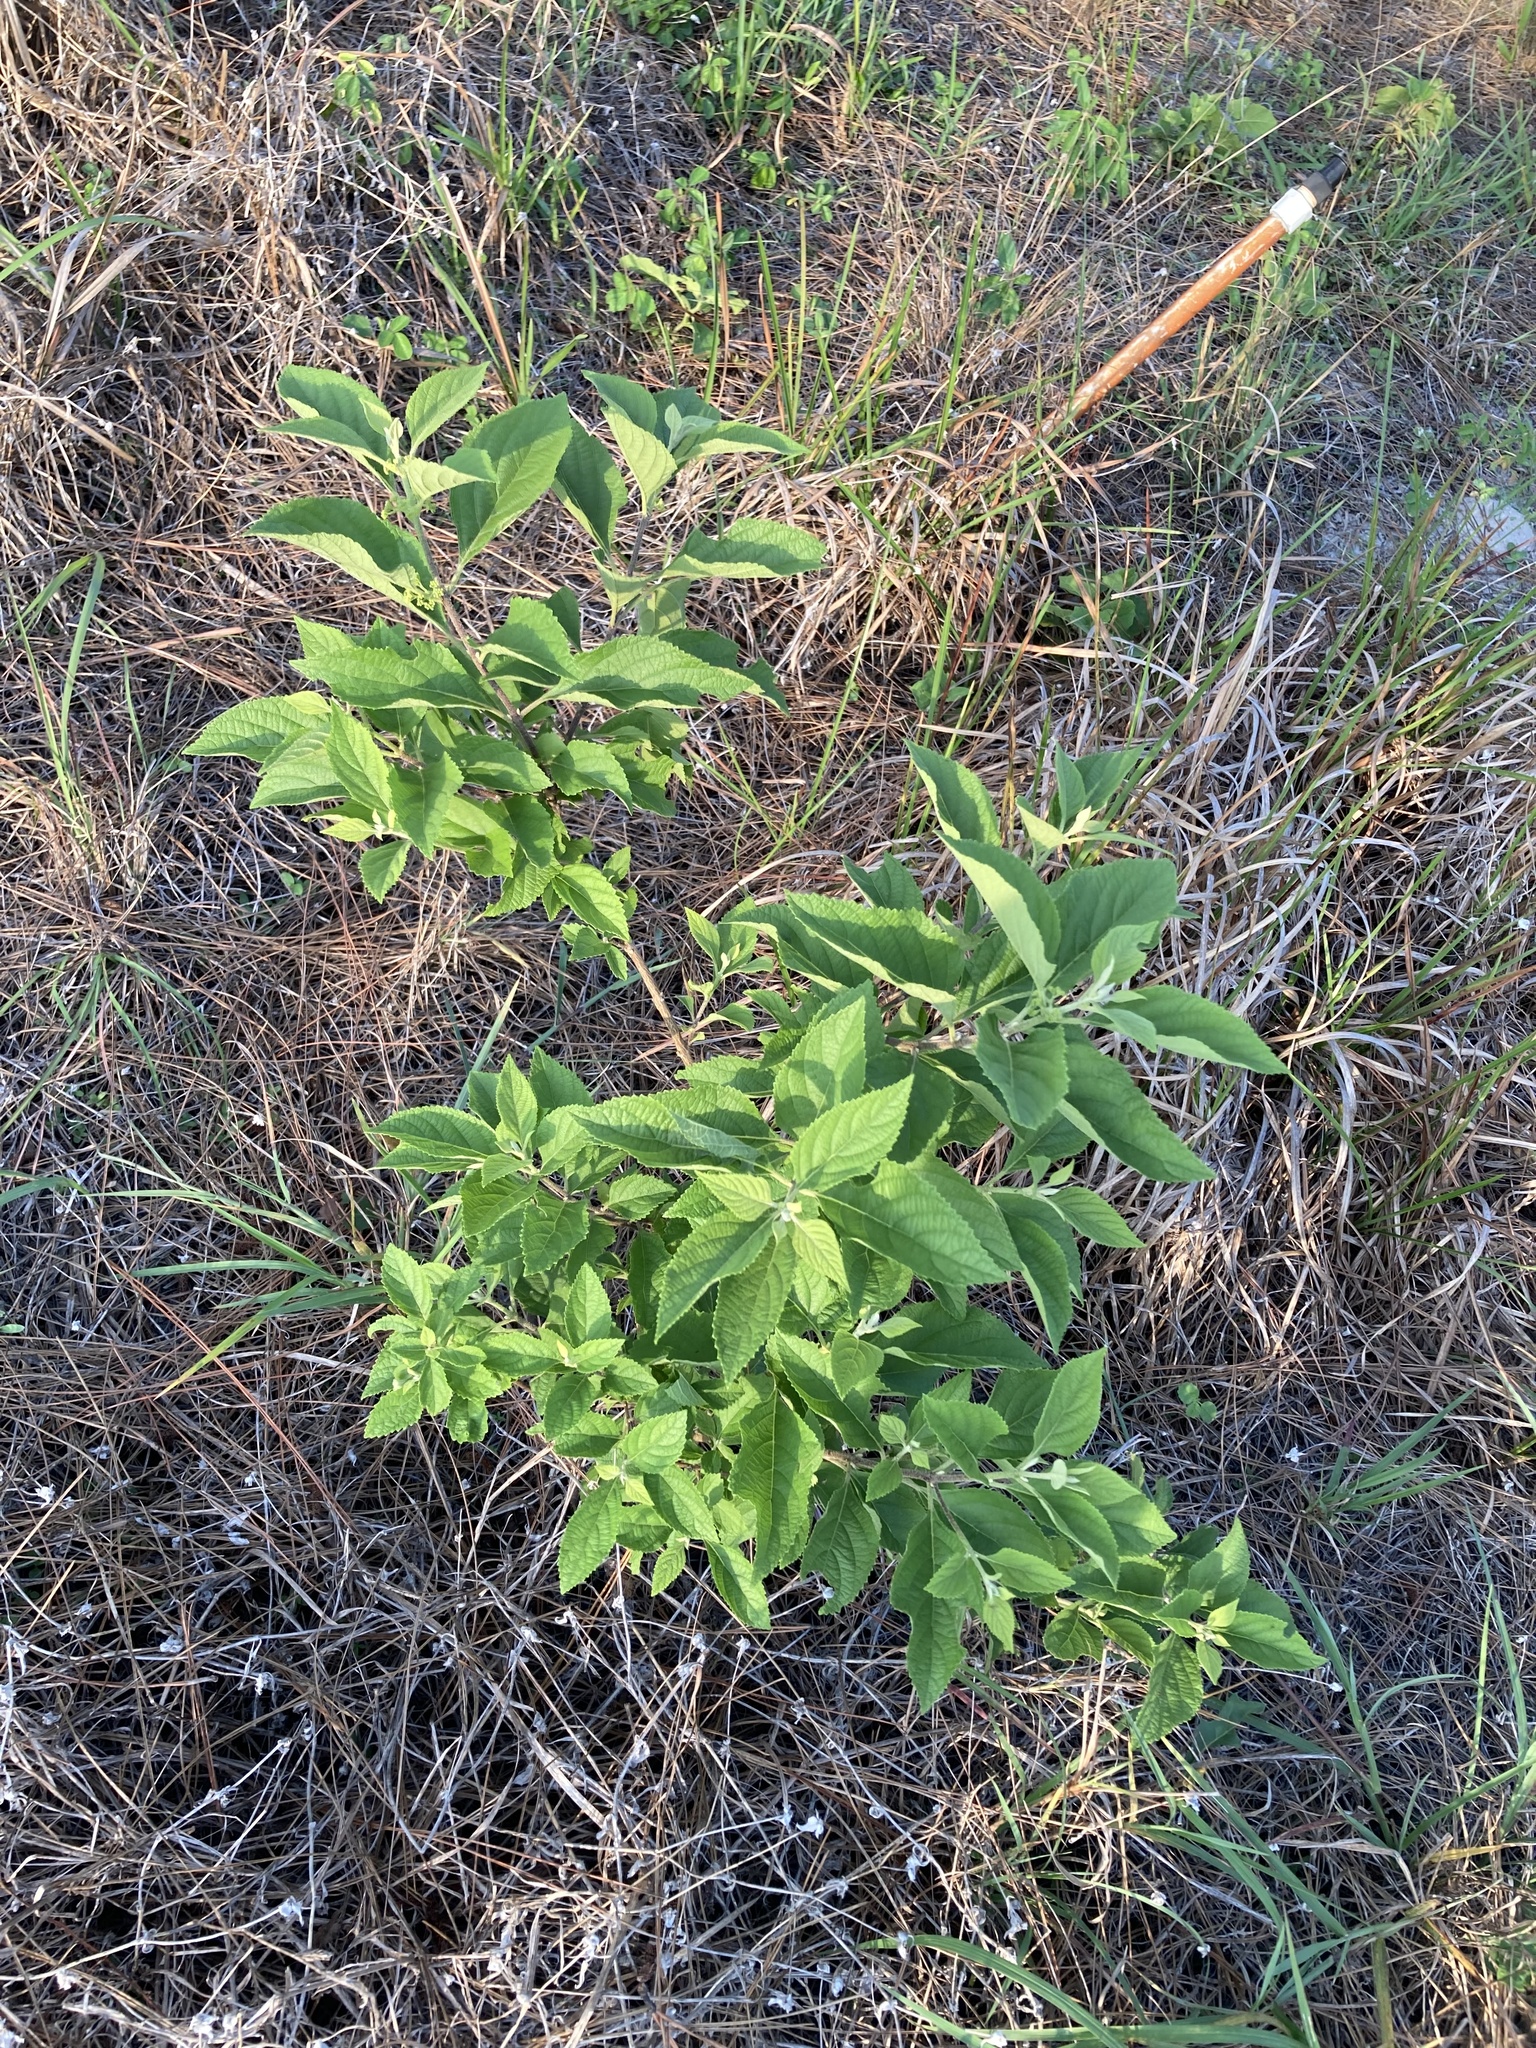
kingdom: Plantae
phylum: Tracheophyta
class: Magnoliopsida
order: Lamiales
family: Lamiaceae
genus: Callicarpa
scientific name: Callicarpa americana
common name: American beautyberry
